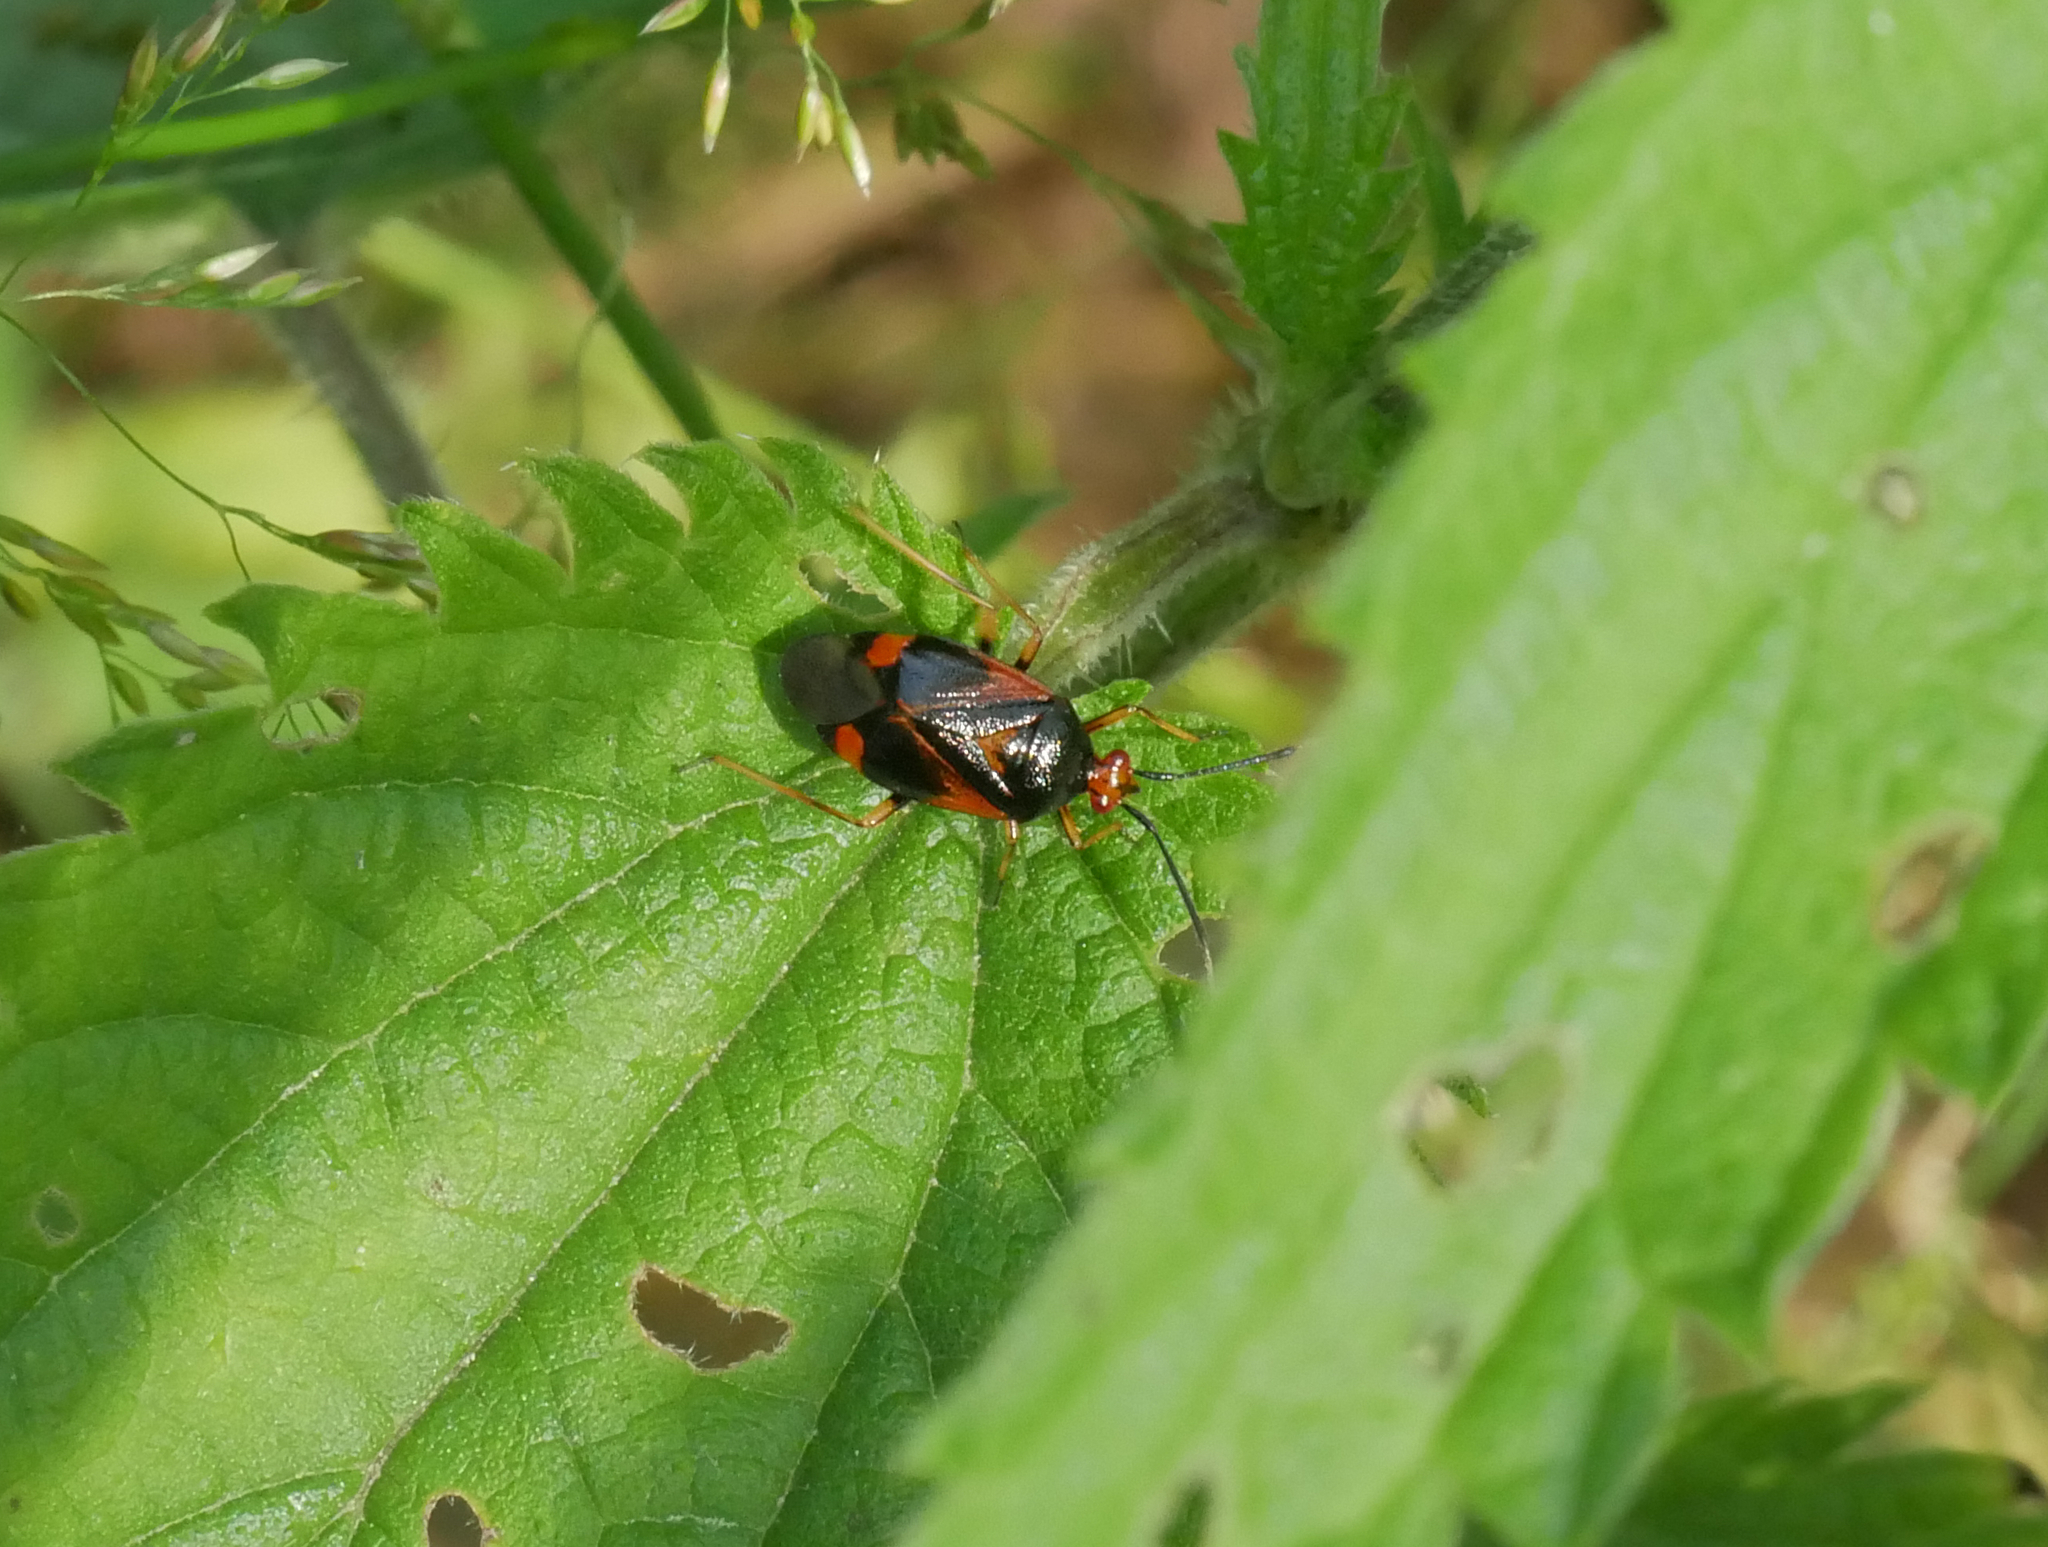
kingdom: Animalia
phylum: Arthropoda
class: Insecta
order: Hemiptera
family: Miridae
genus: Deraeocoris
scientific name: Deraeocoris ruber
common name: Plant bug
